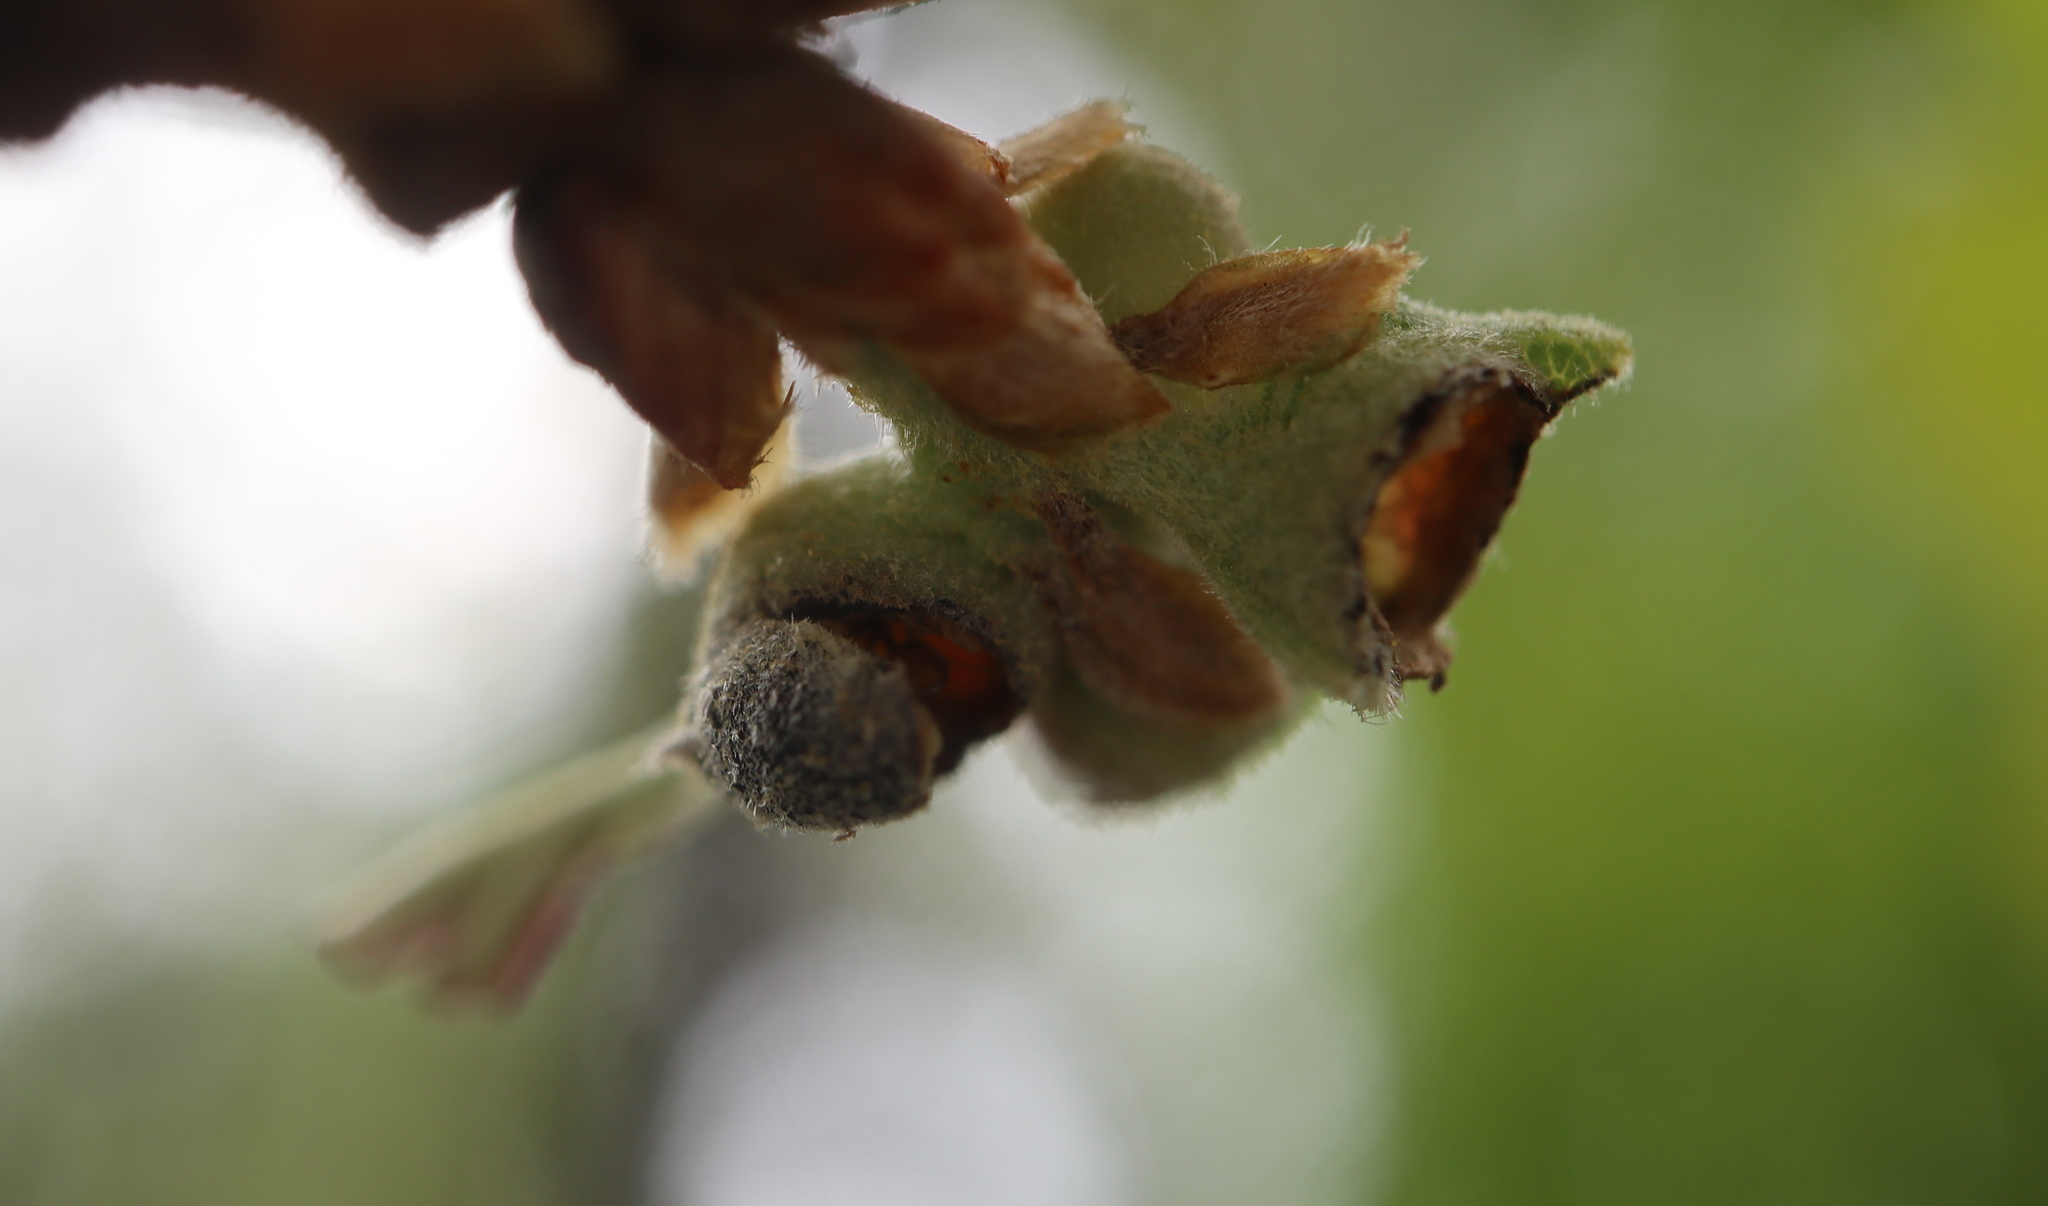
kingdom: Animalia
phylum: Arthropoda
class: Insecta
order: Hymenoptera
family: Cynipidae
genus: Andricus
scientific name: Andricus
